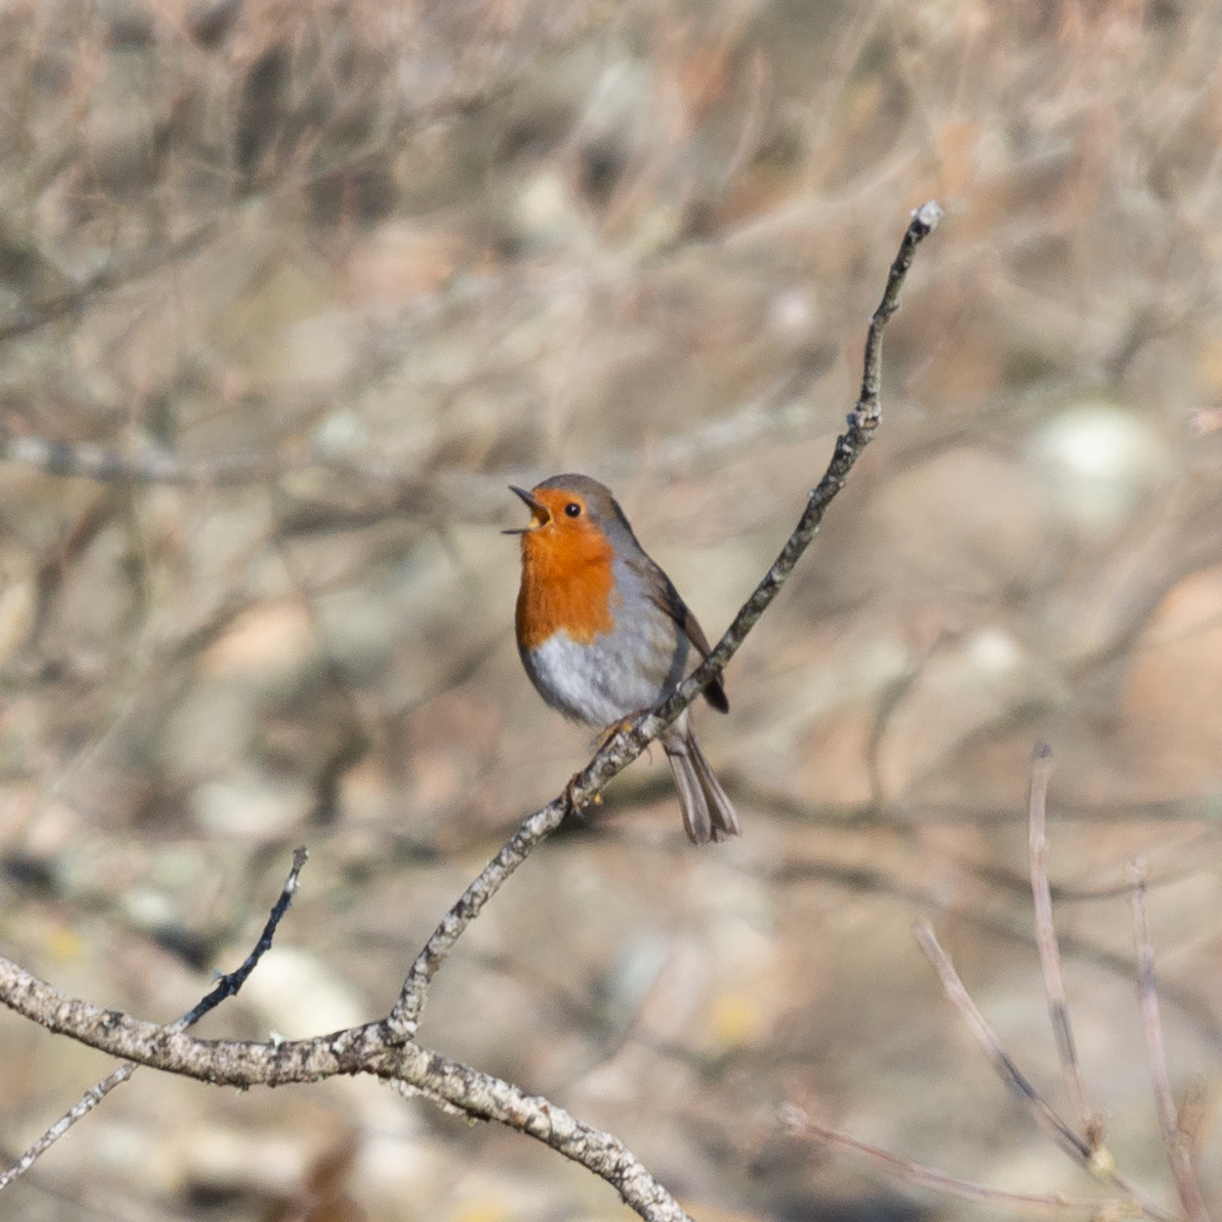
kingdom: Animalia
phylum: Chordata
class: Aves
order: Passeriformes
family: Muscicapidae
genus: Erithacus
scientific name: Erithacus rubecula
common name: European robin
